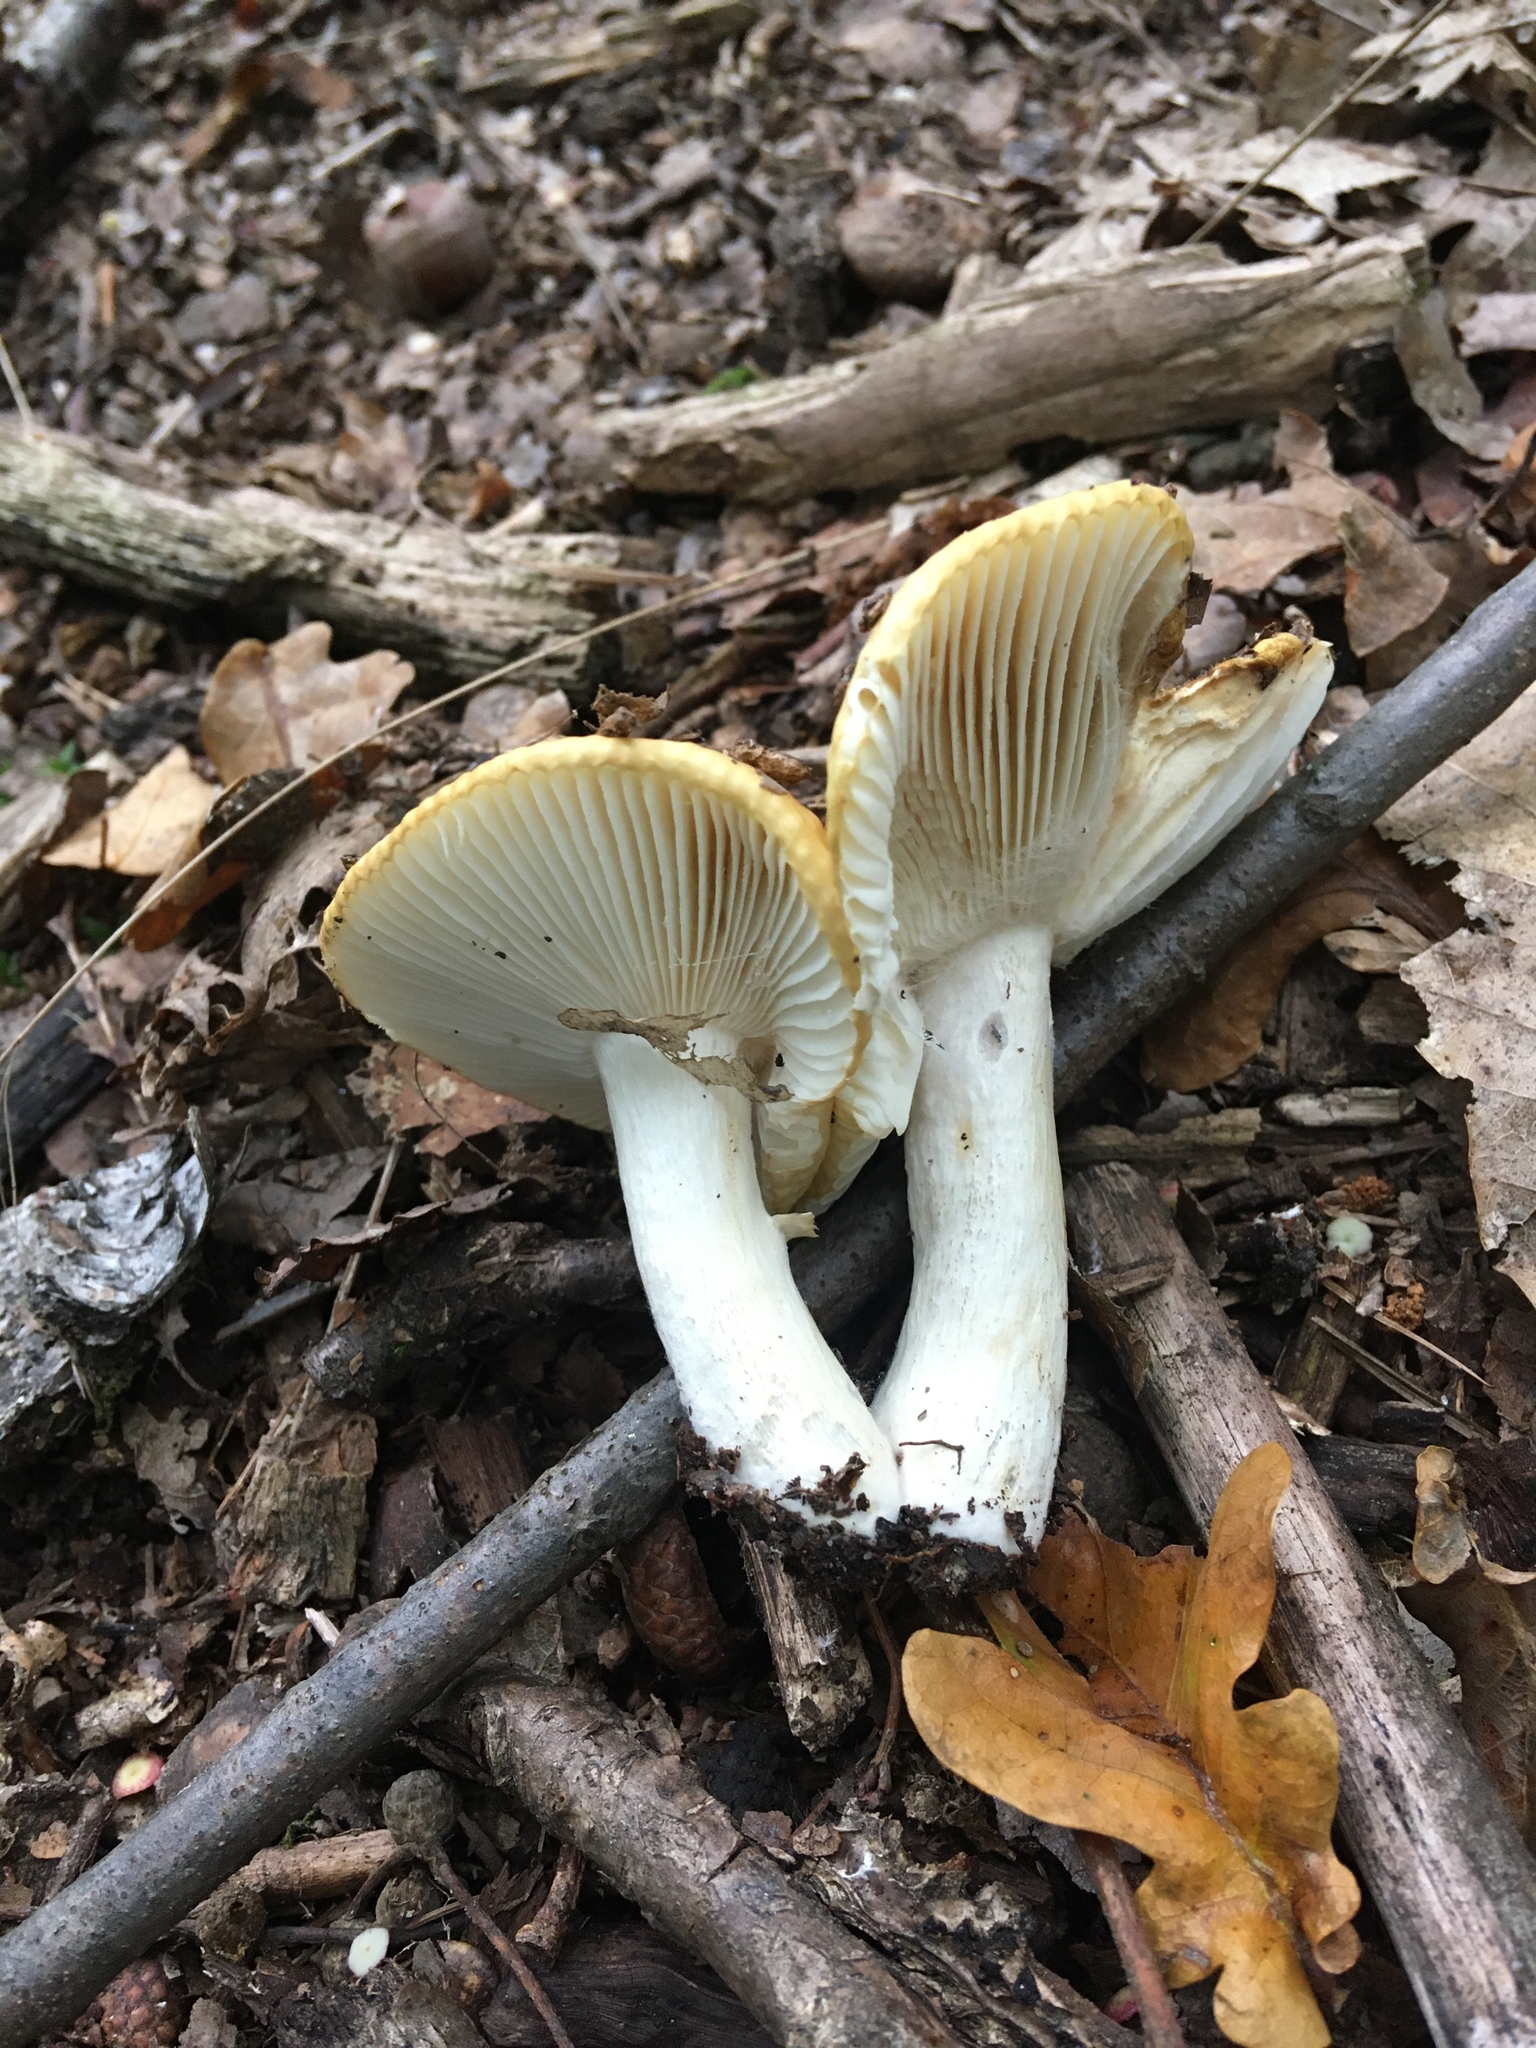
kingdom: Fungi
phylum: Basidiomycota
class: Agaricomycetes
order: Russulales
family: Russulaceae
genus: Russula
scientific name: Russula ochroleuca
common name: Common yellow russula
